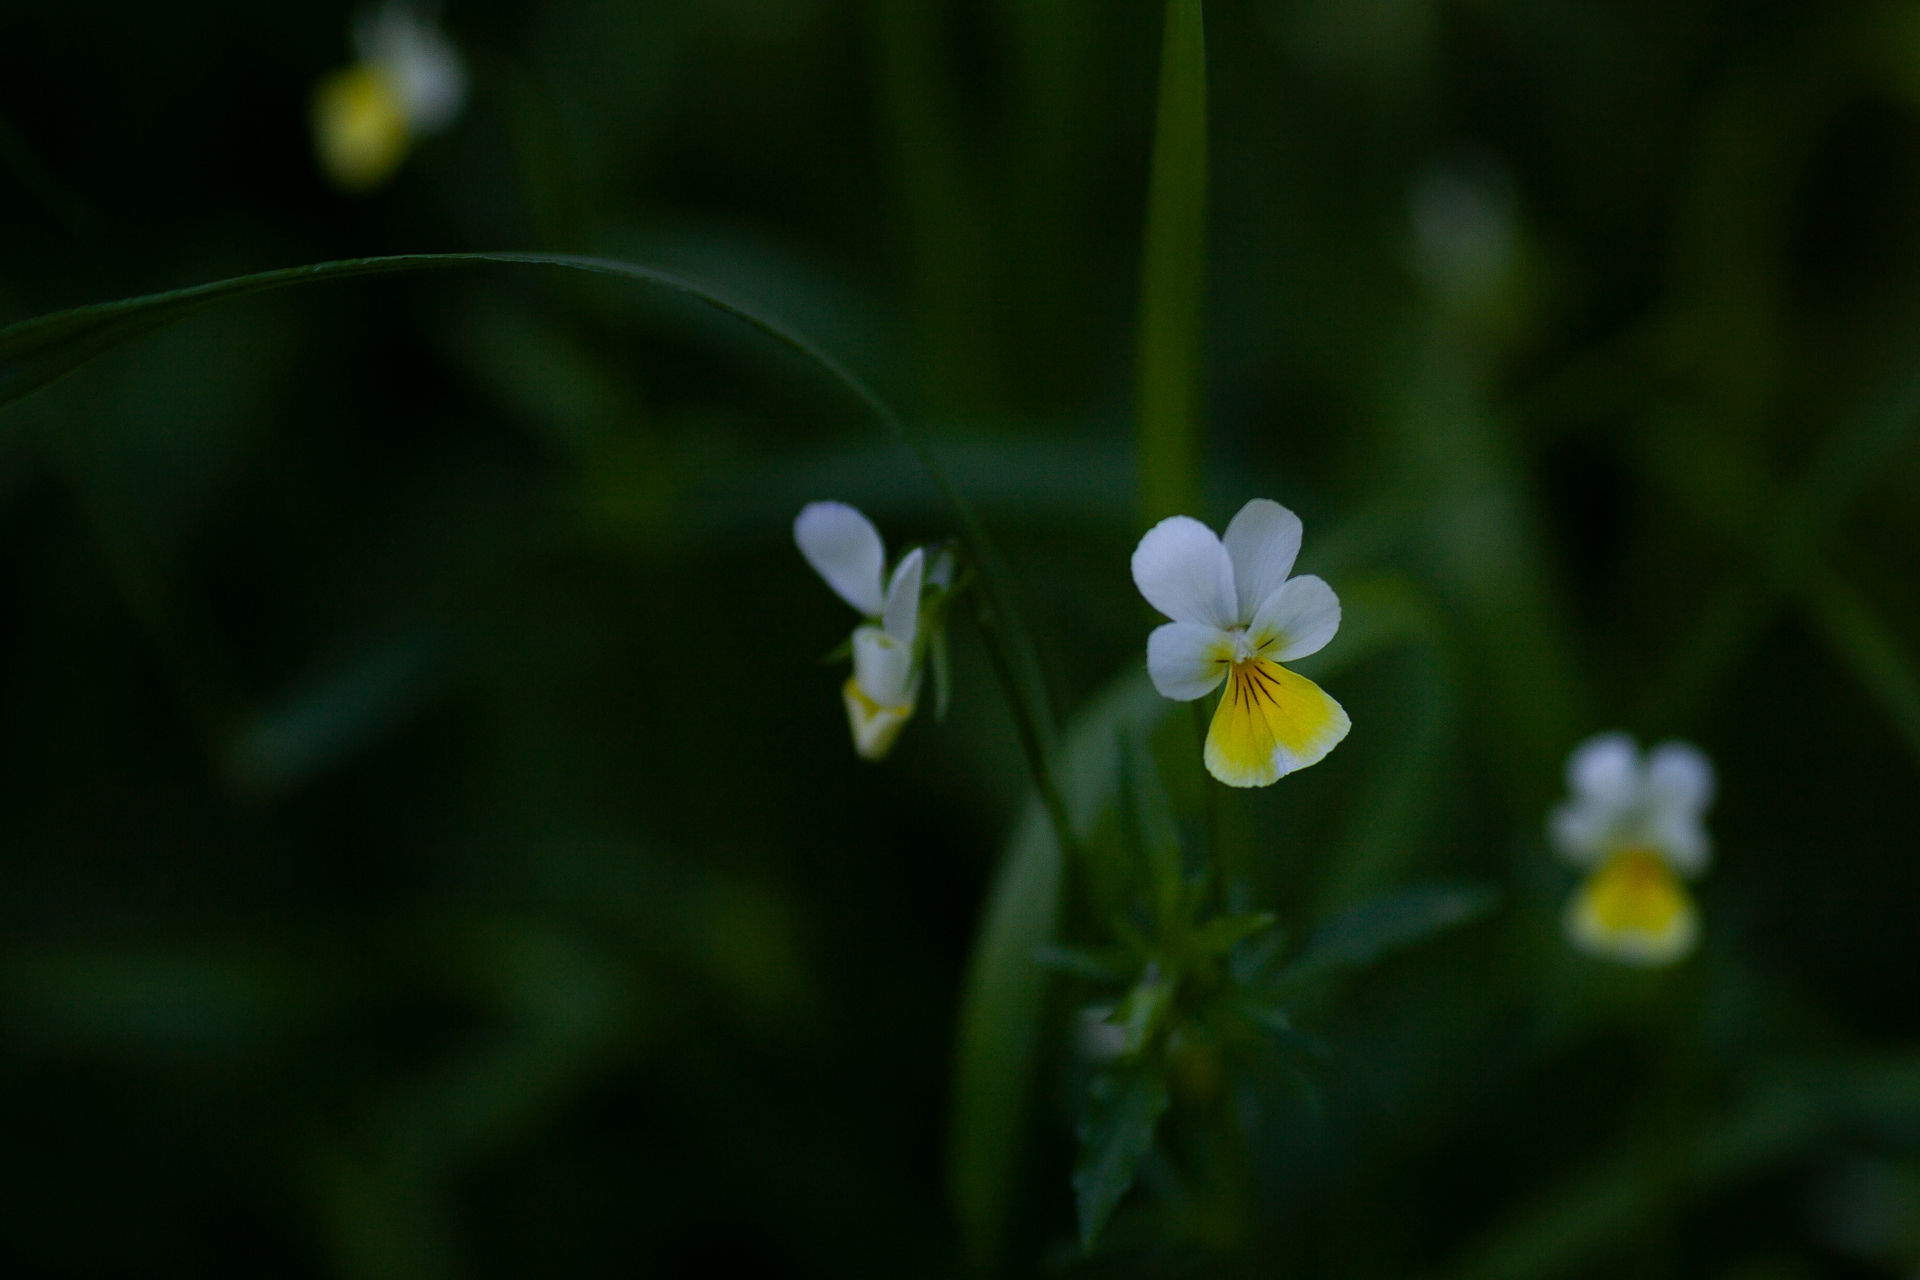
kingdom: Plantae
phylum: Tracheophyta
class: Magnoliopsida
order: Malpighiales
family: Violaceae
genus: Viola
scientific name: Viola contempta
